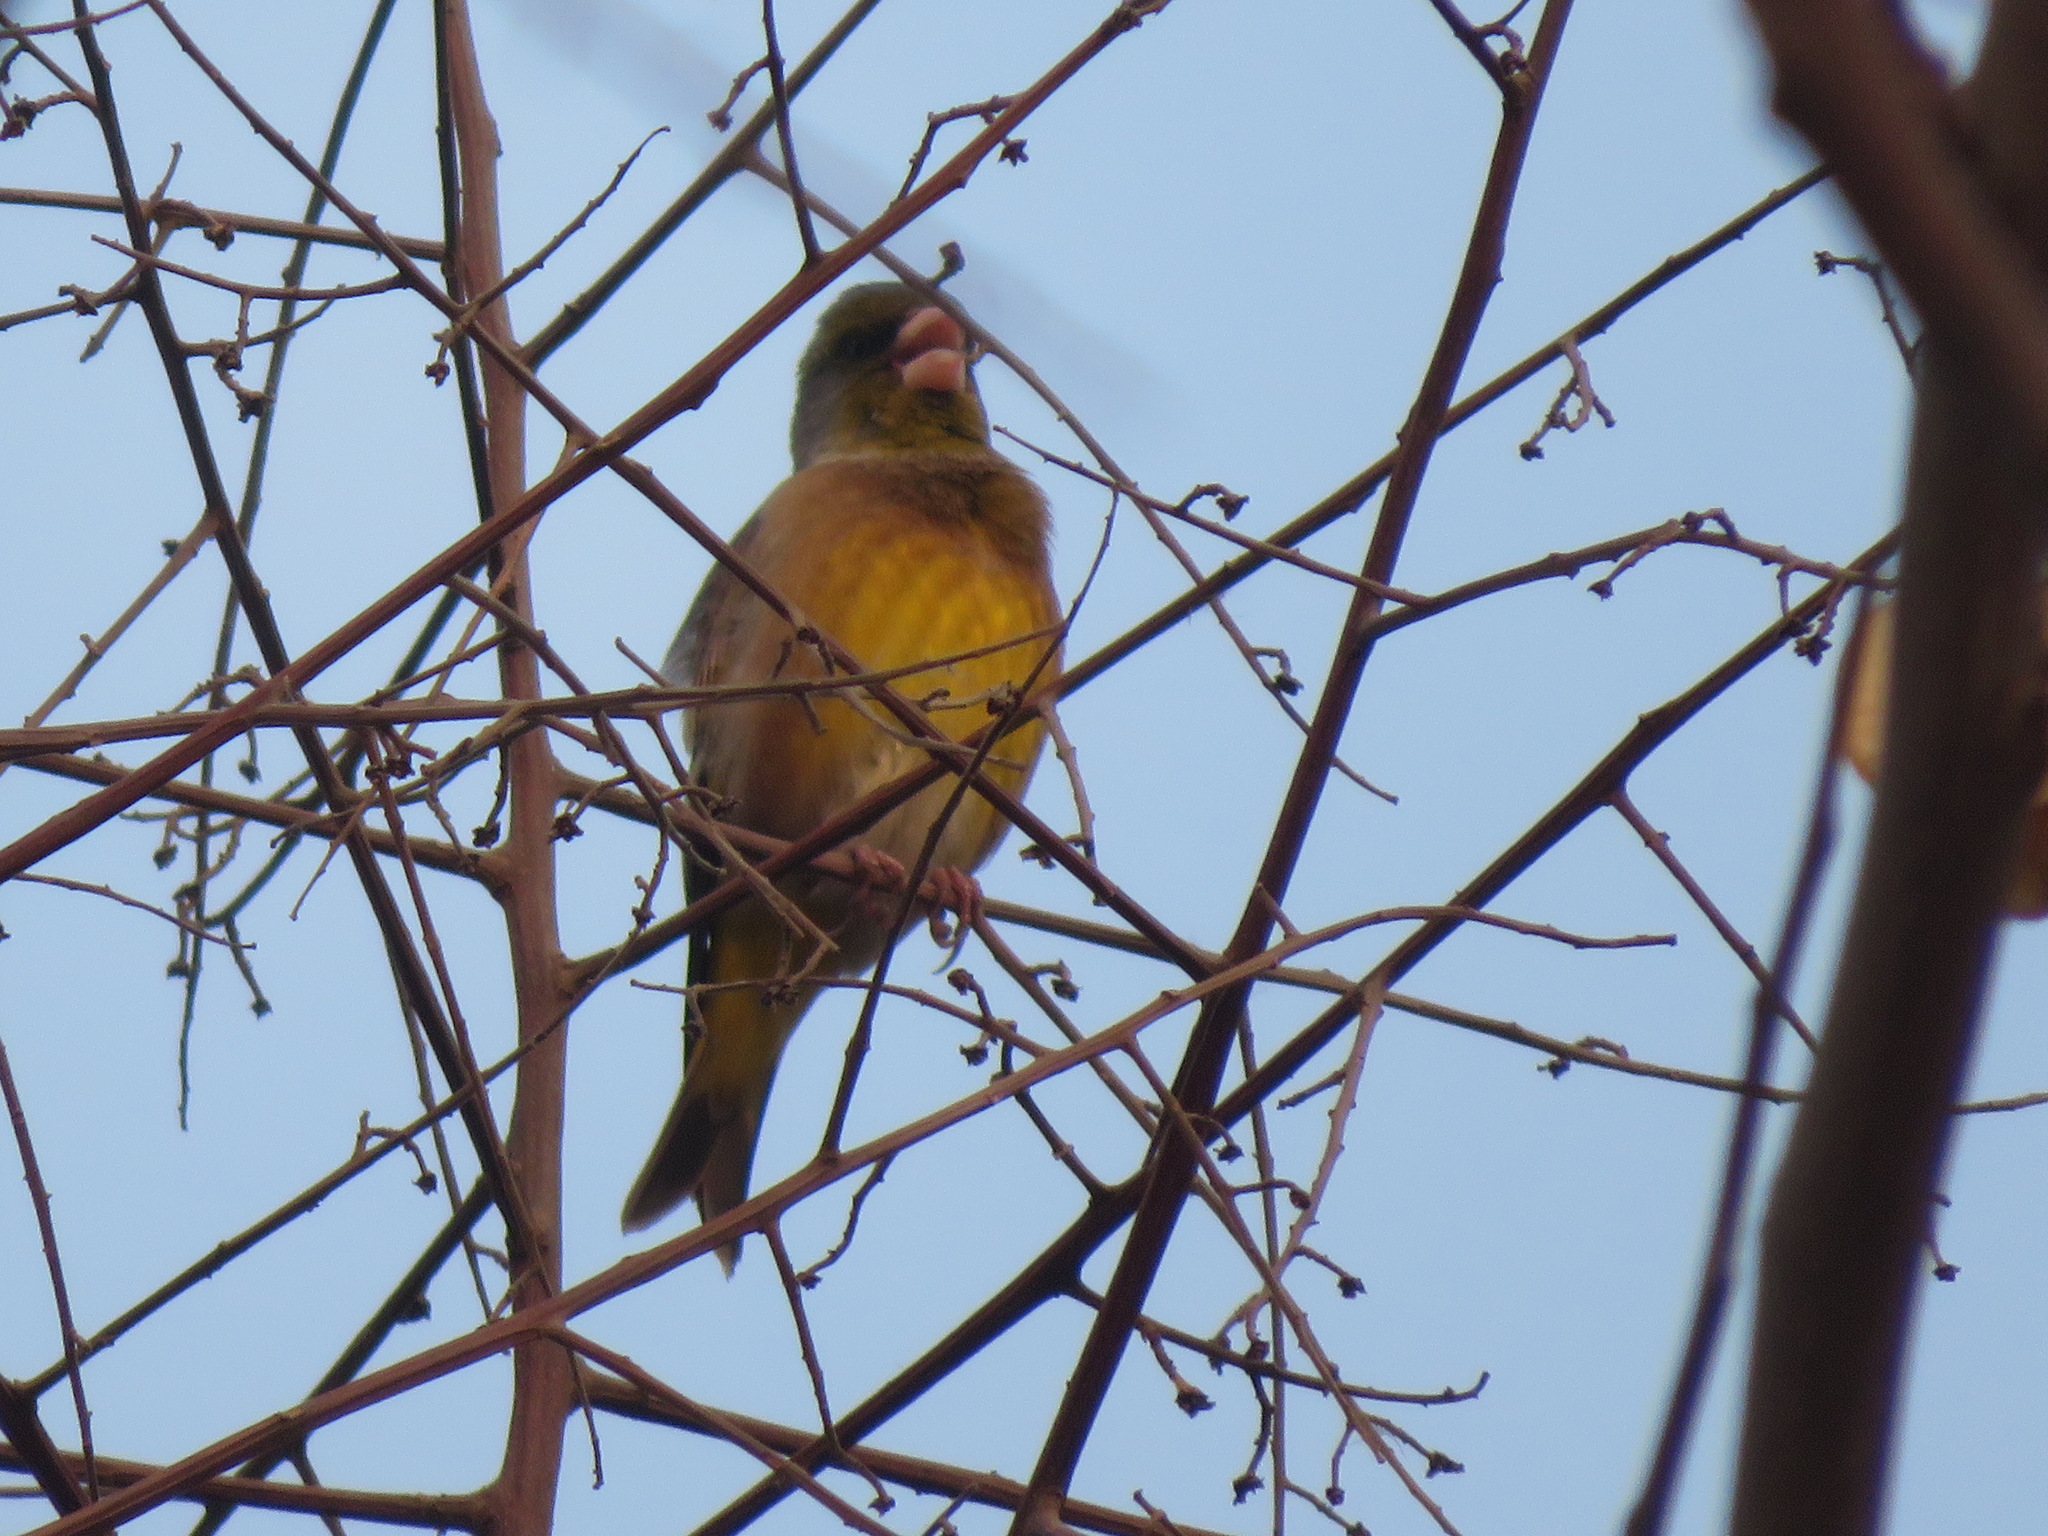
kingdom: Plantae
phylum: Tracheophyta
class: Liliopsida
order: Poales
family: Poaceae
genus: Chloris
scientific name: Chloris sinica
